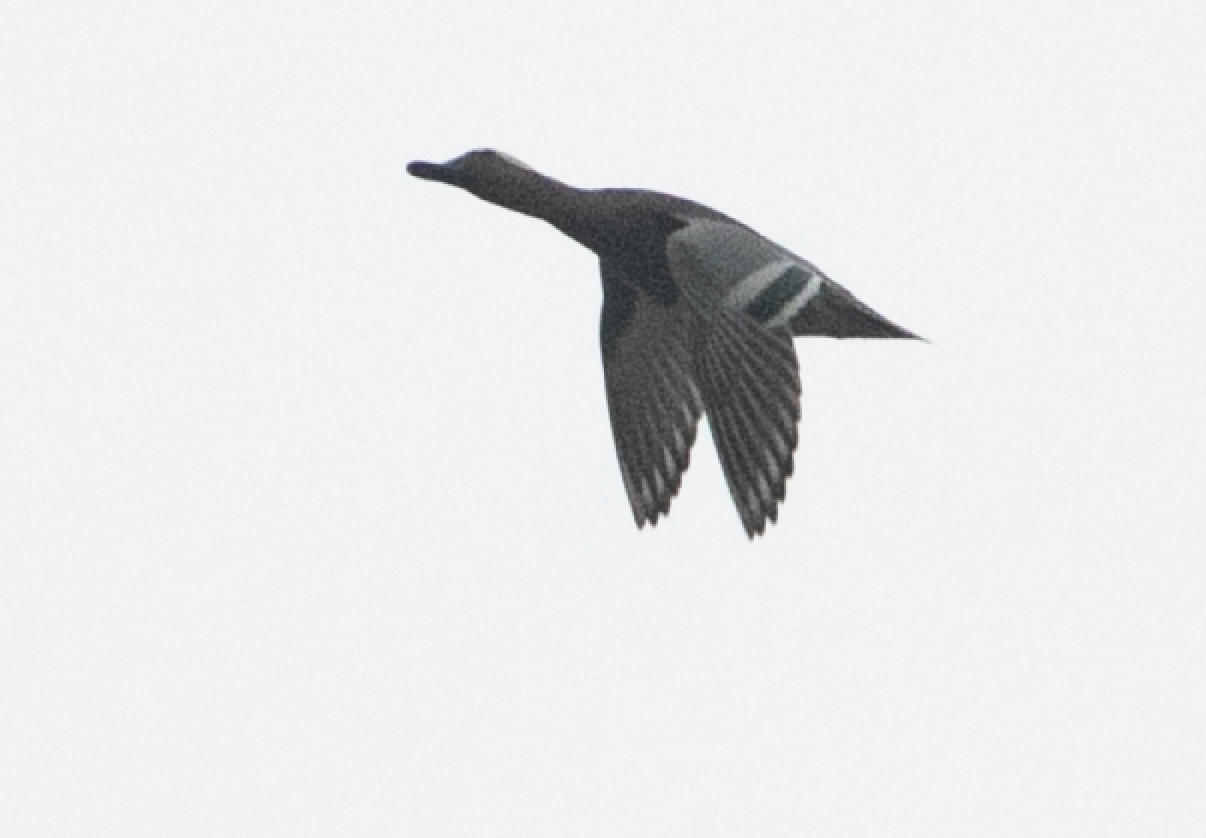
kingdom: Animalia
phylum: Chordata
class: Aves
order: Anseriformes
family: Anatidae
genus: Spatula
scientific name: Spatula querquedula
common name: Garganey
